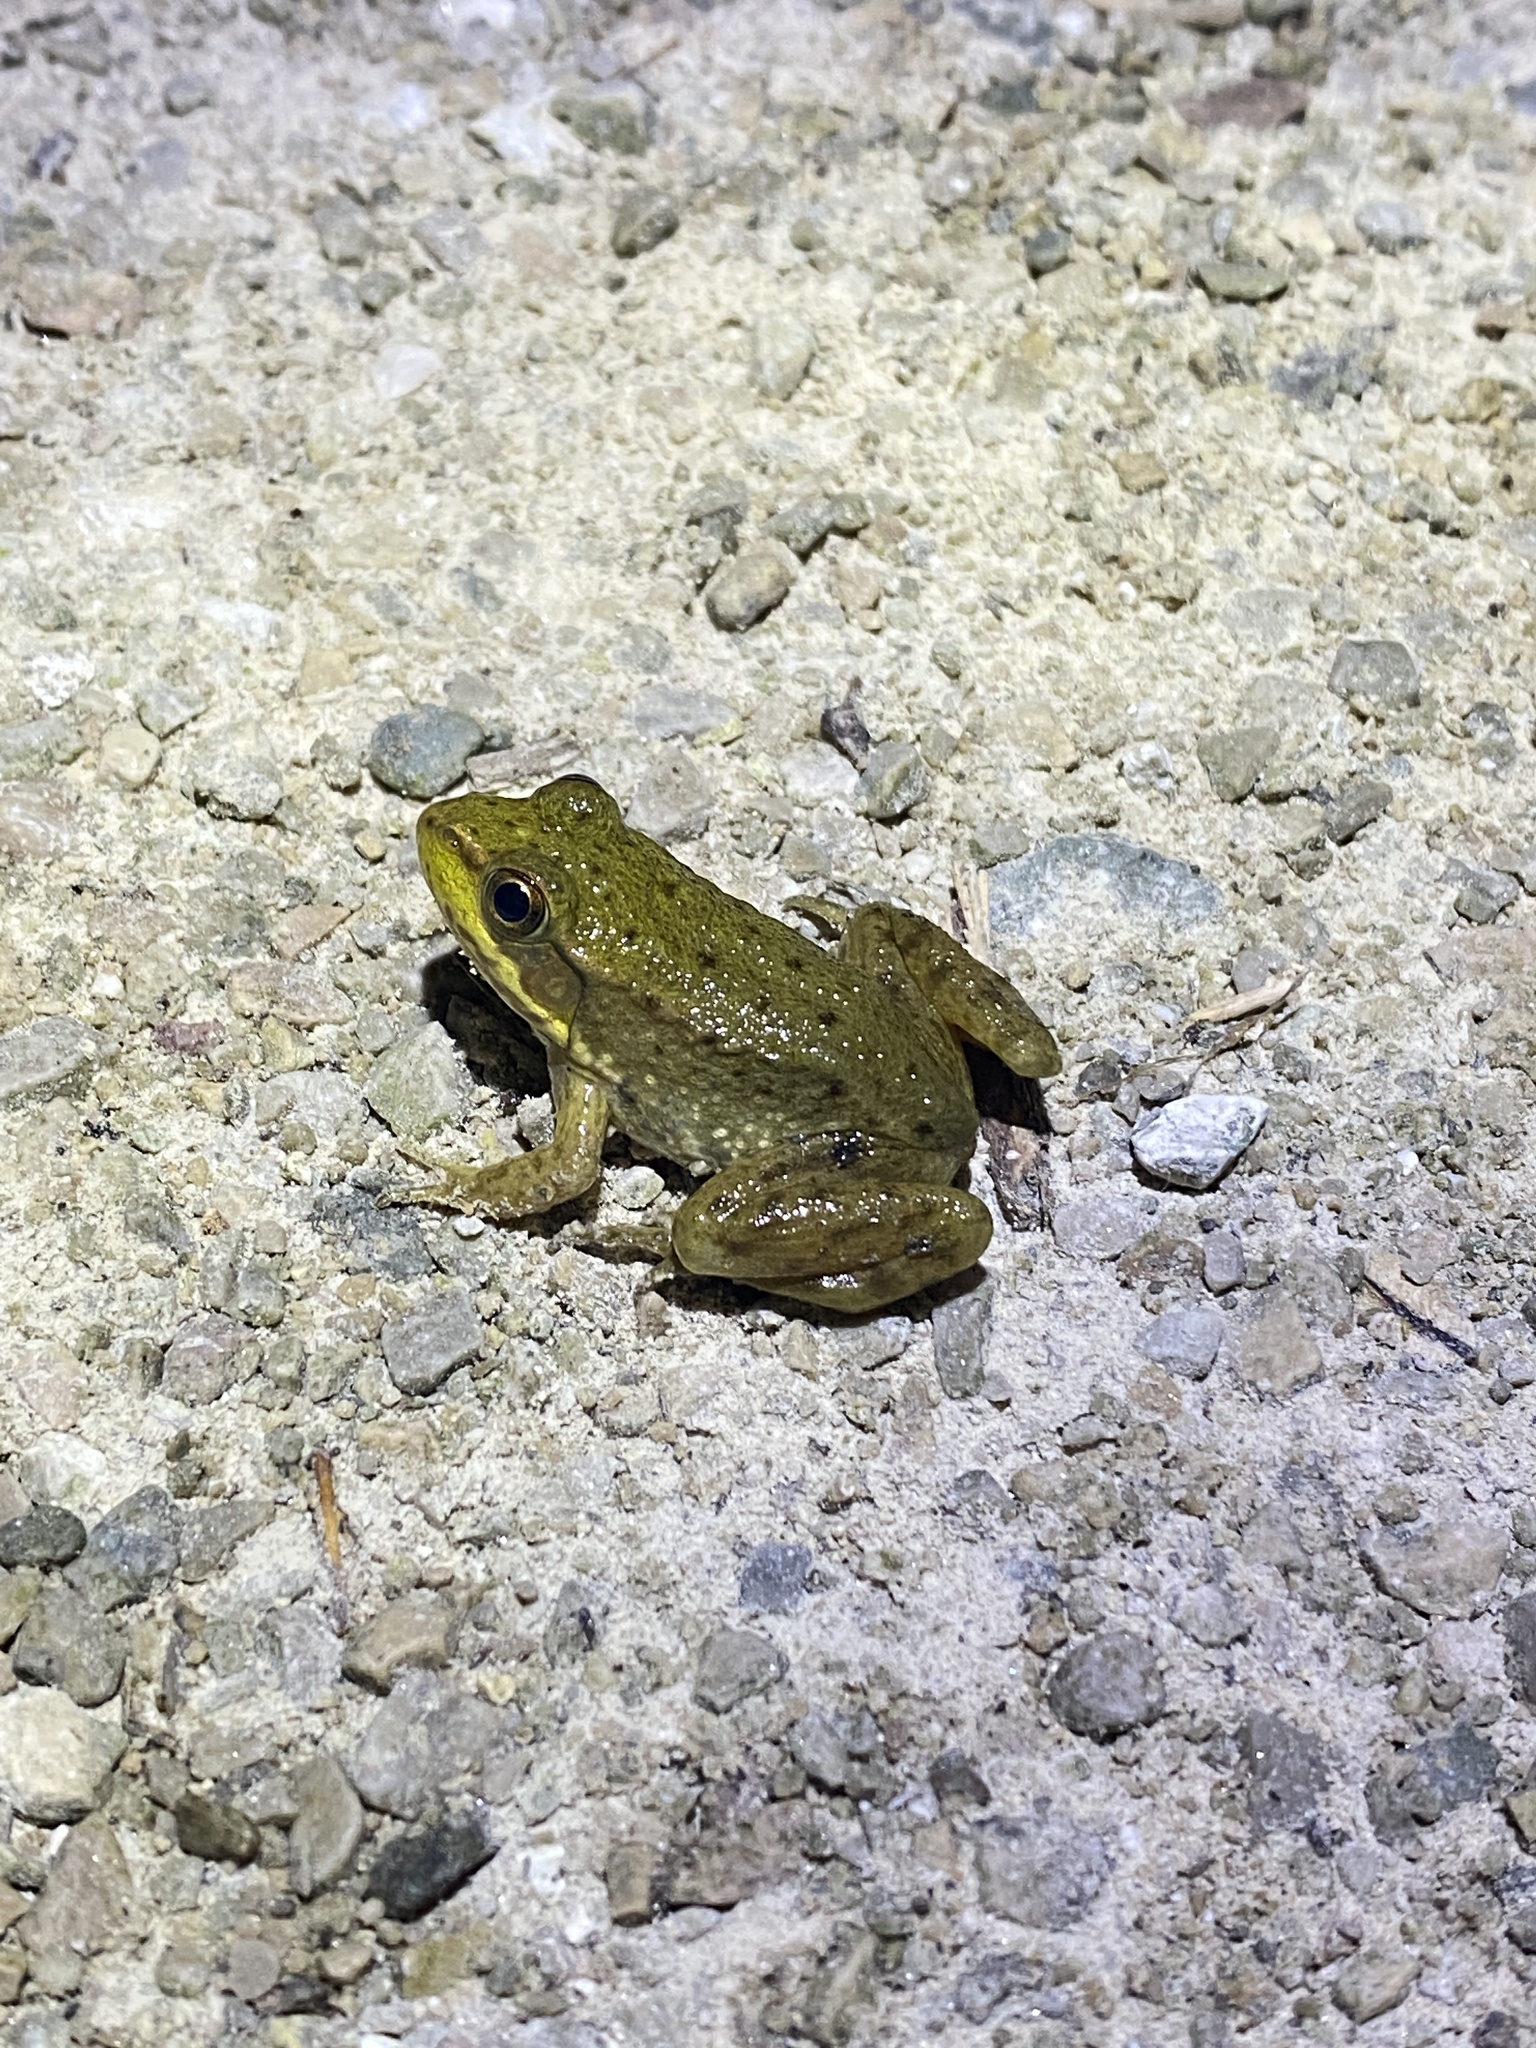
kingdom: Animalia
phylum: Chordata
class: Amphibia
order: Anura
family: Ranidae
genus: Lithobates
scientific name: Lithobates clamitans
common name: Green frog
